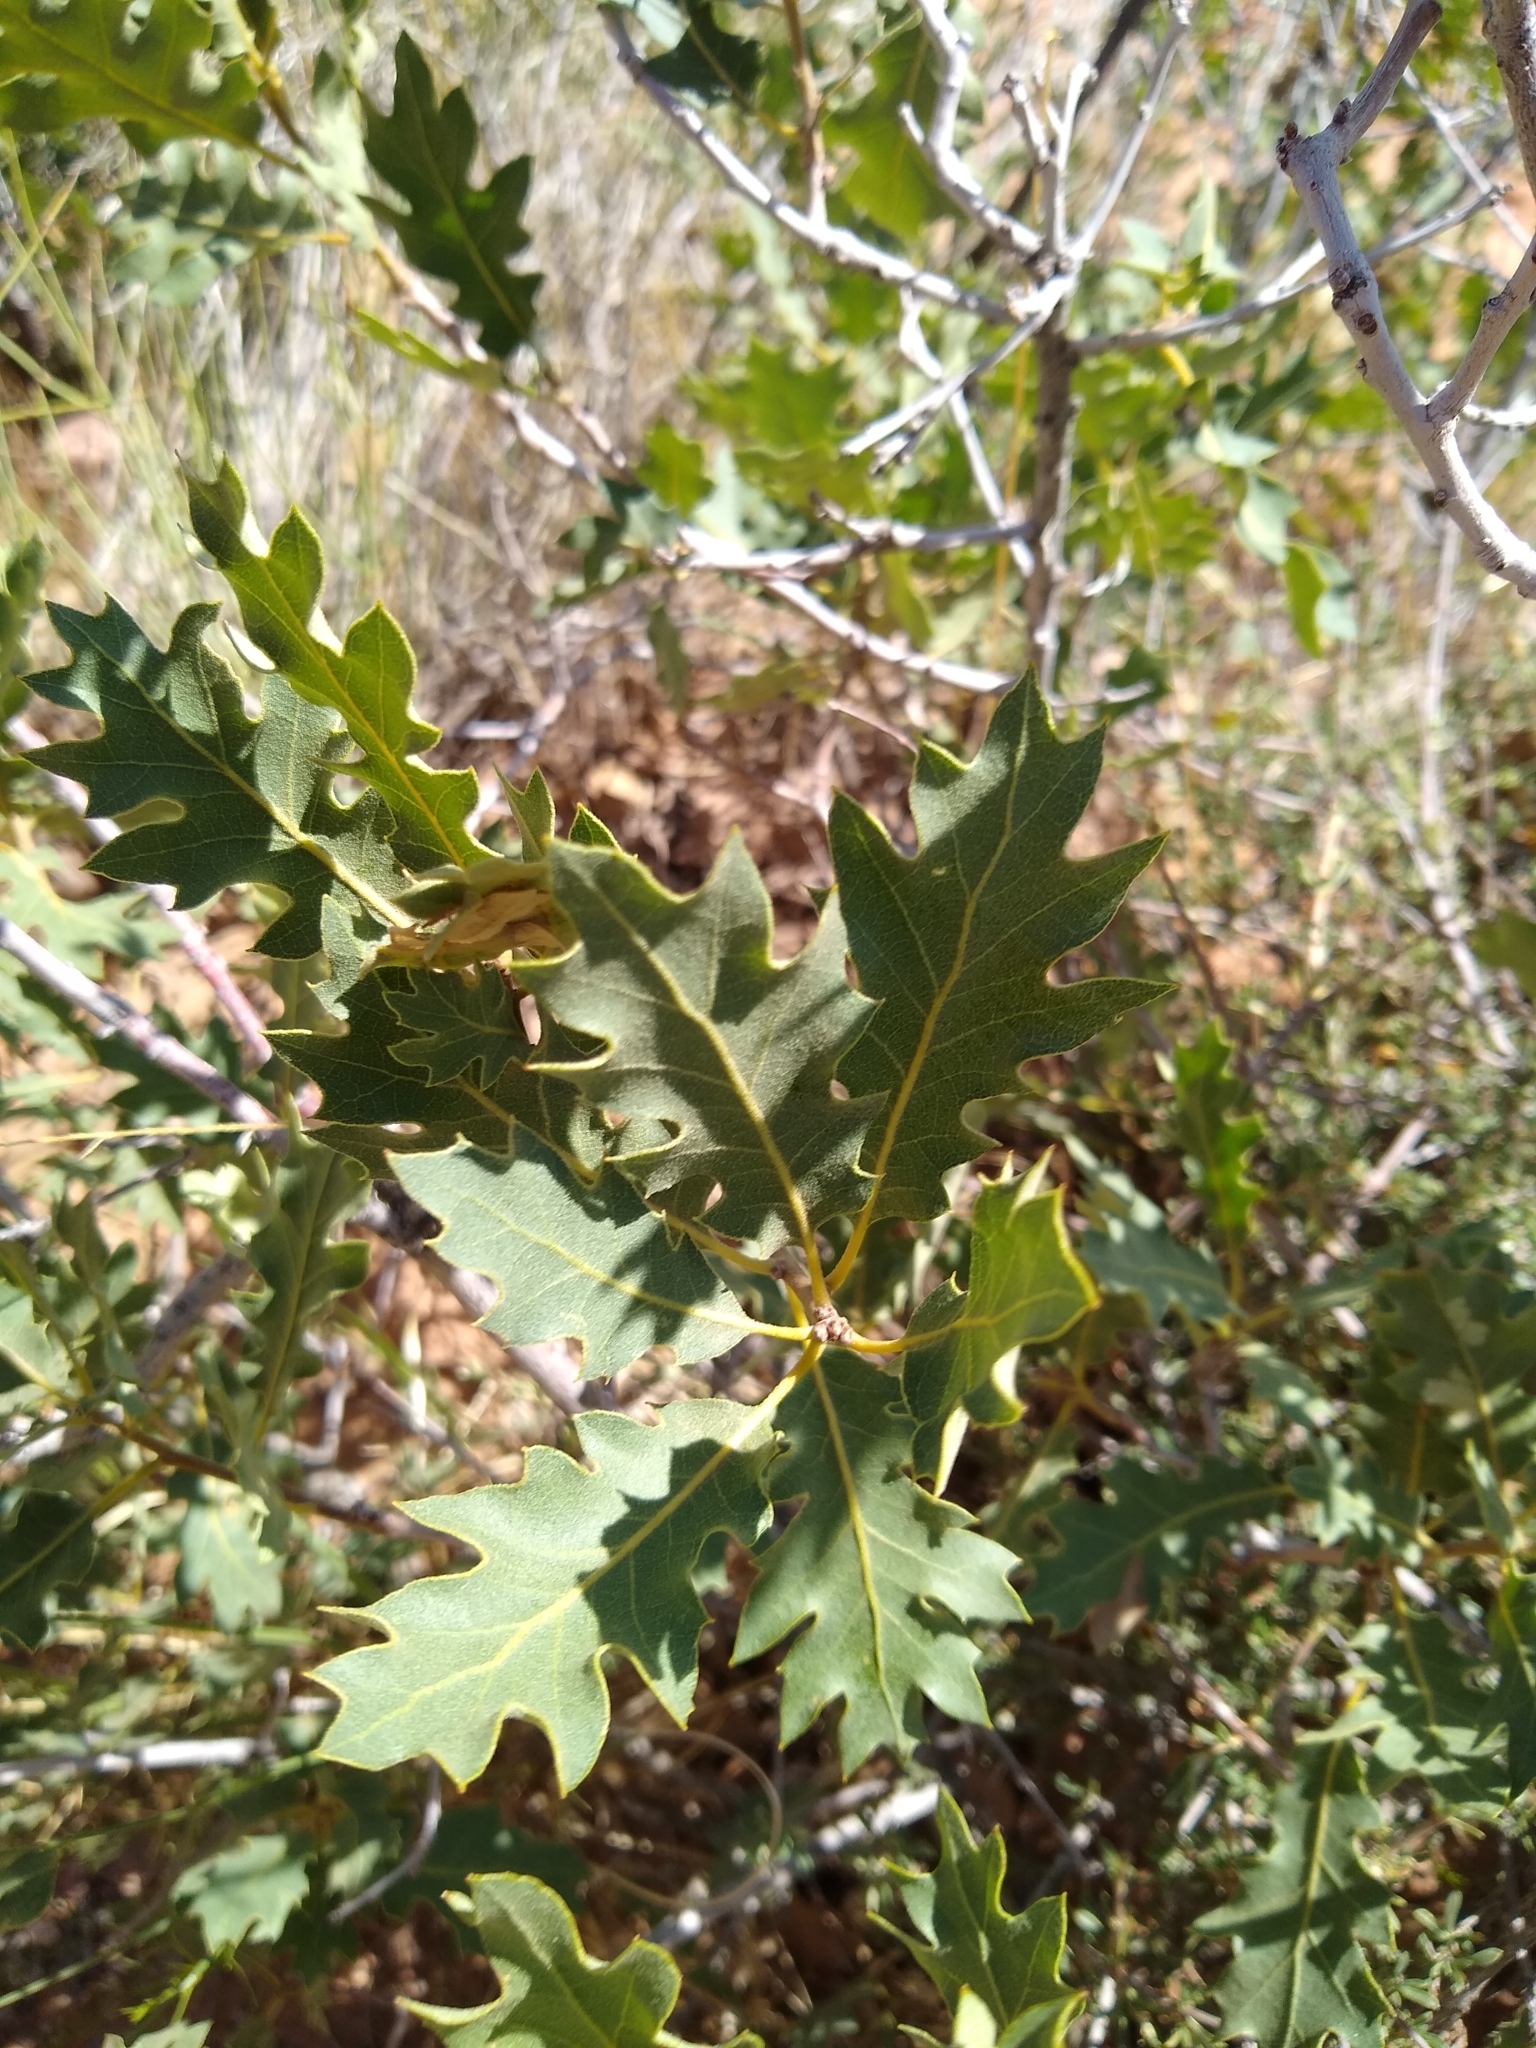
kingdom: Plantae
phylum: Tracheophyta
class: Magnoliopsida
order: Fagales
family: Fagaceae
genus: Quercus
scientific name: Quercus welshii
